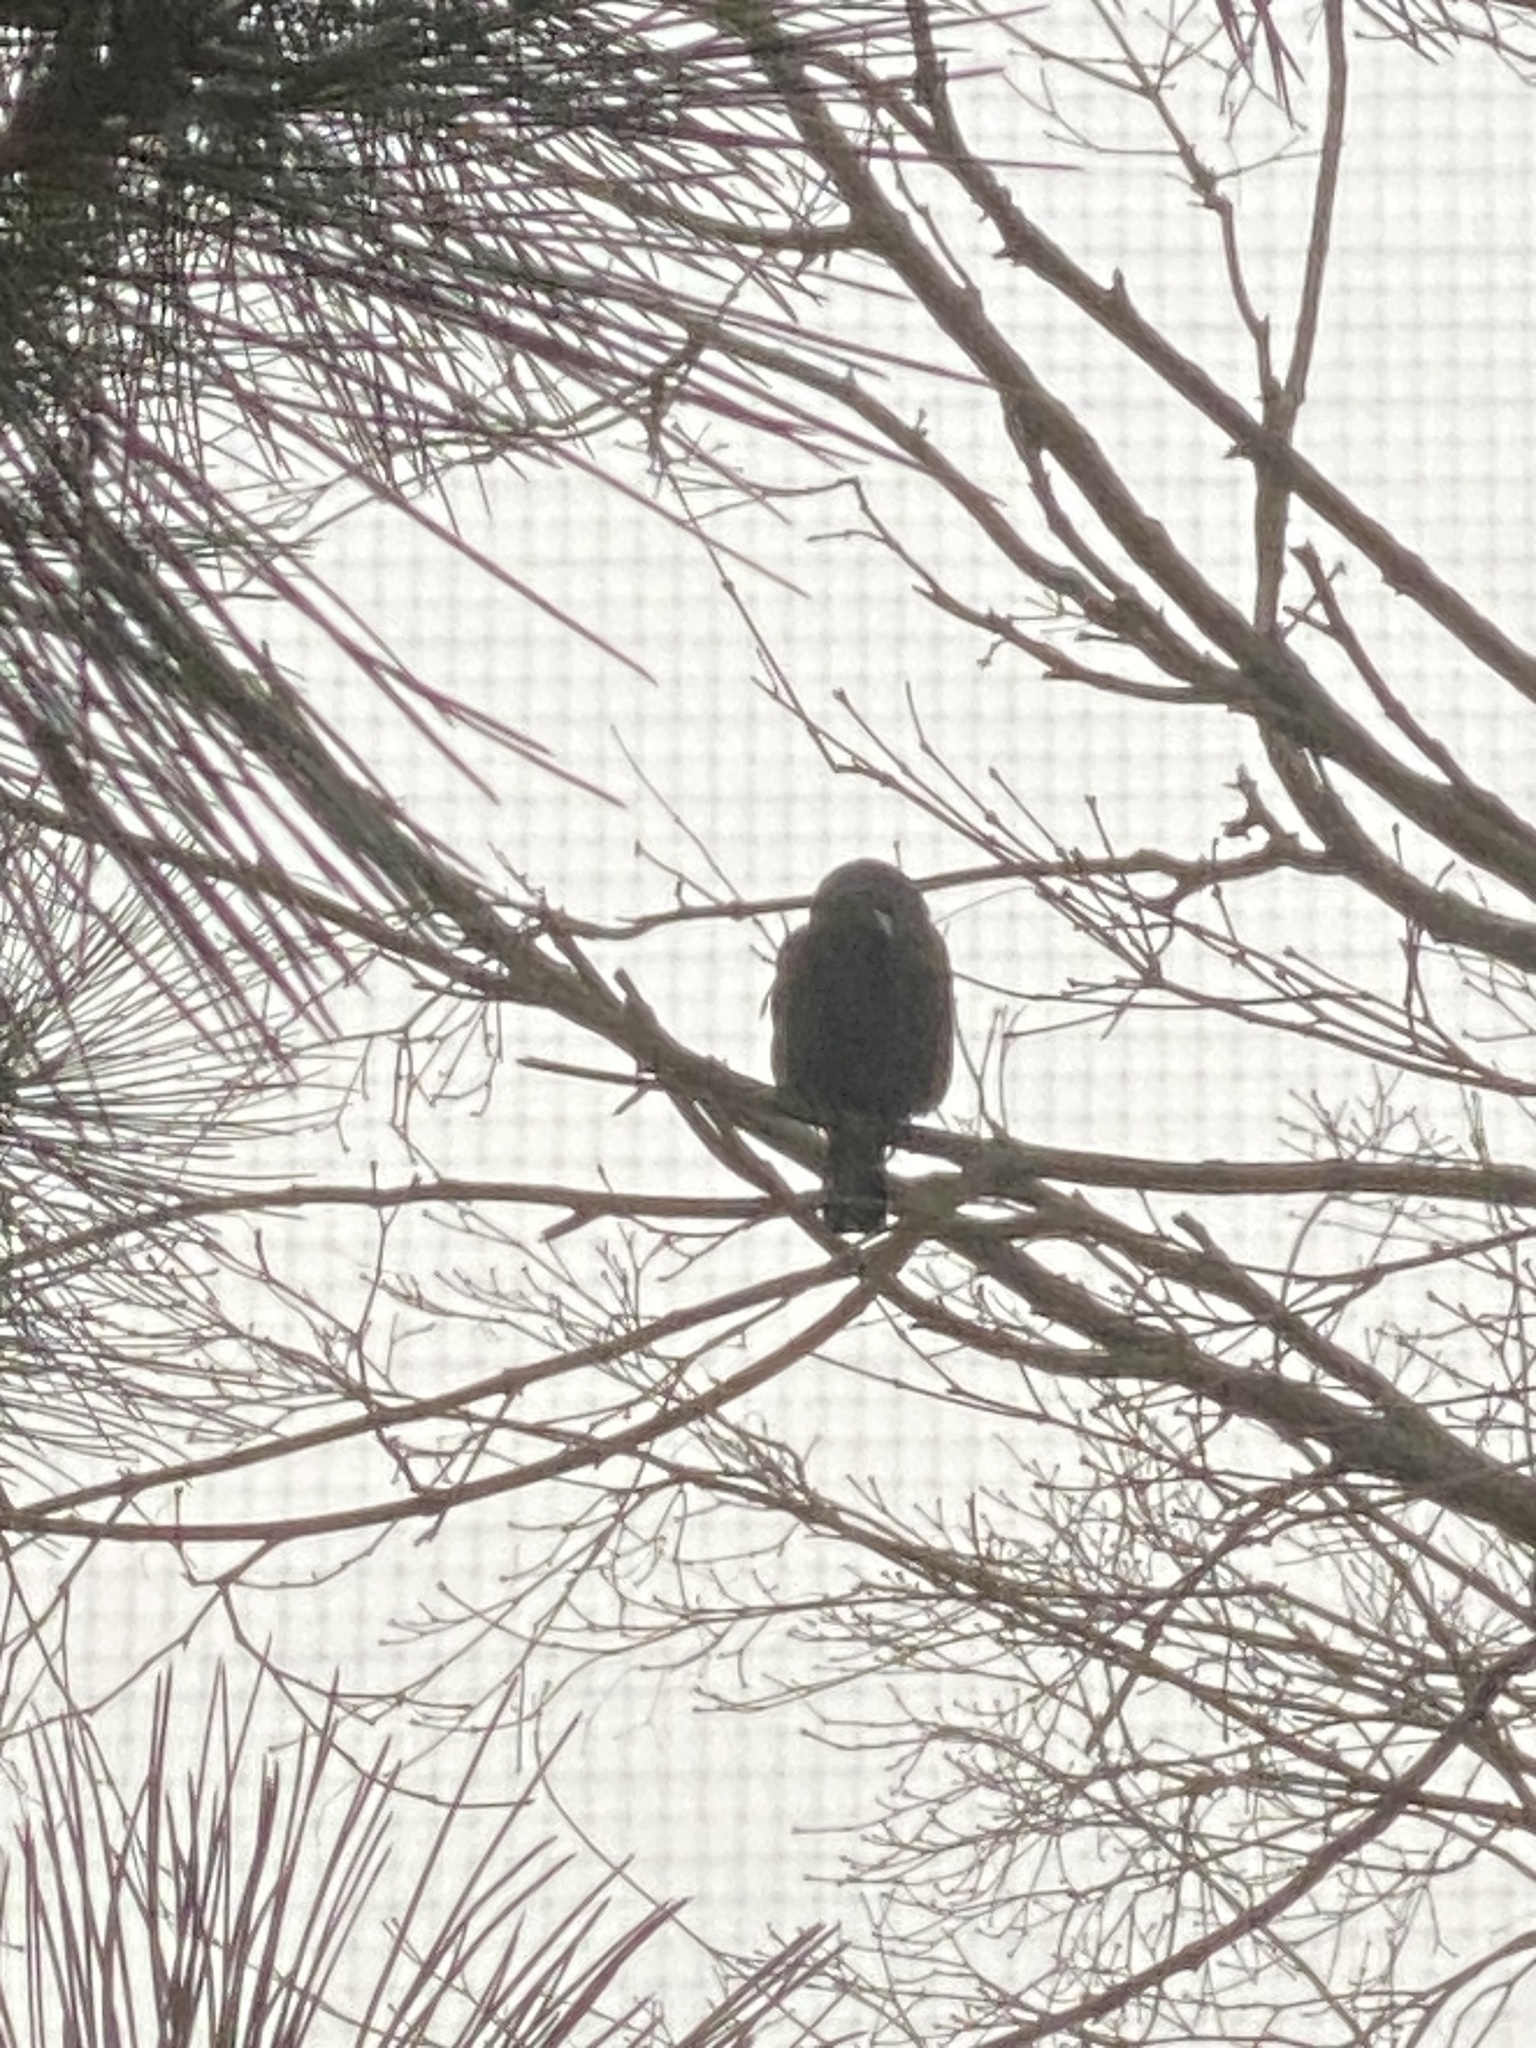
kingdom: Animalia
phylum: Chordata
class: Aves
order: Passeriformes
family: Icteridae
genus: Quiscalus
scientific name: Quiscalus quiscula
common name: Common grackle
